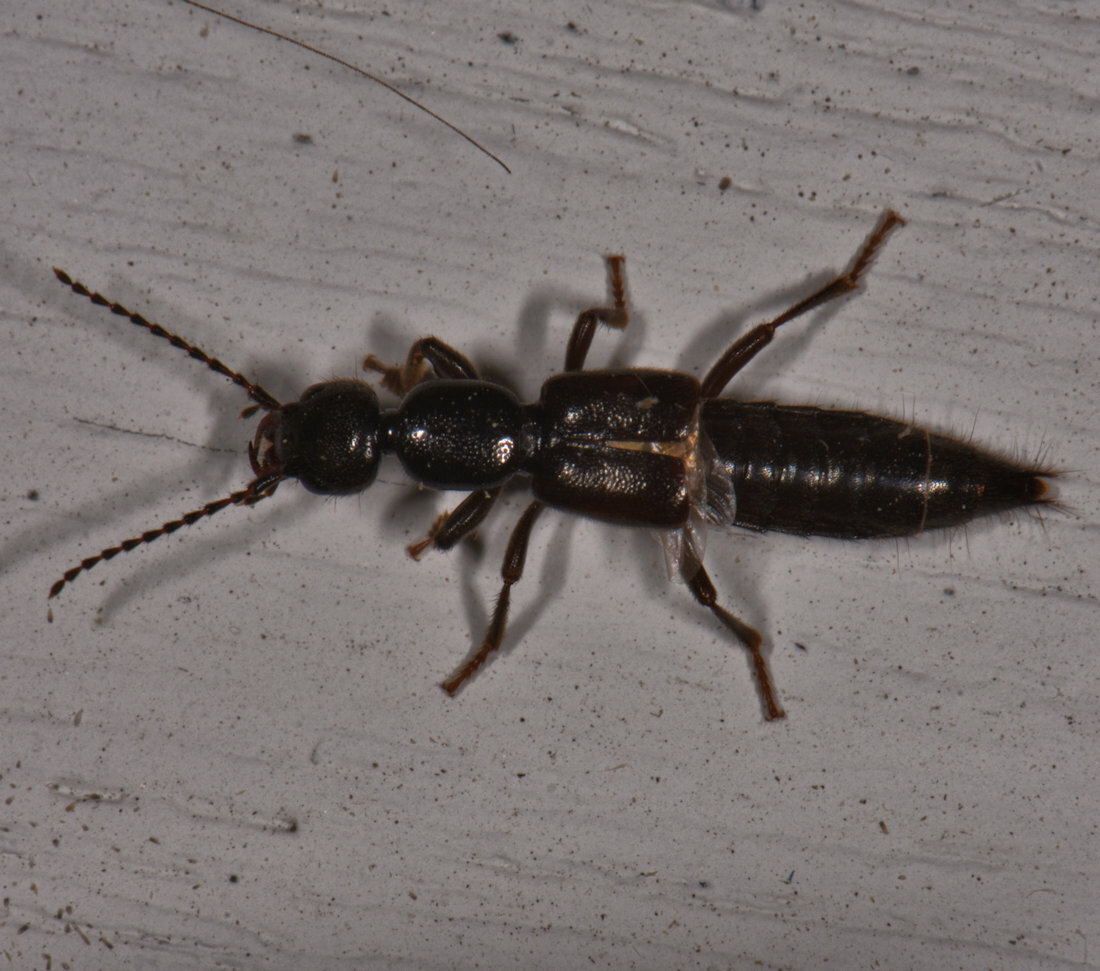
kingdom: Animalia
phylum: Arthropoda
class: Insecta
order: Coleoptera
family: Staphylinidae
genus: Lobrathium
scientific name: Lobrathium grande
